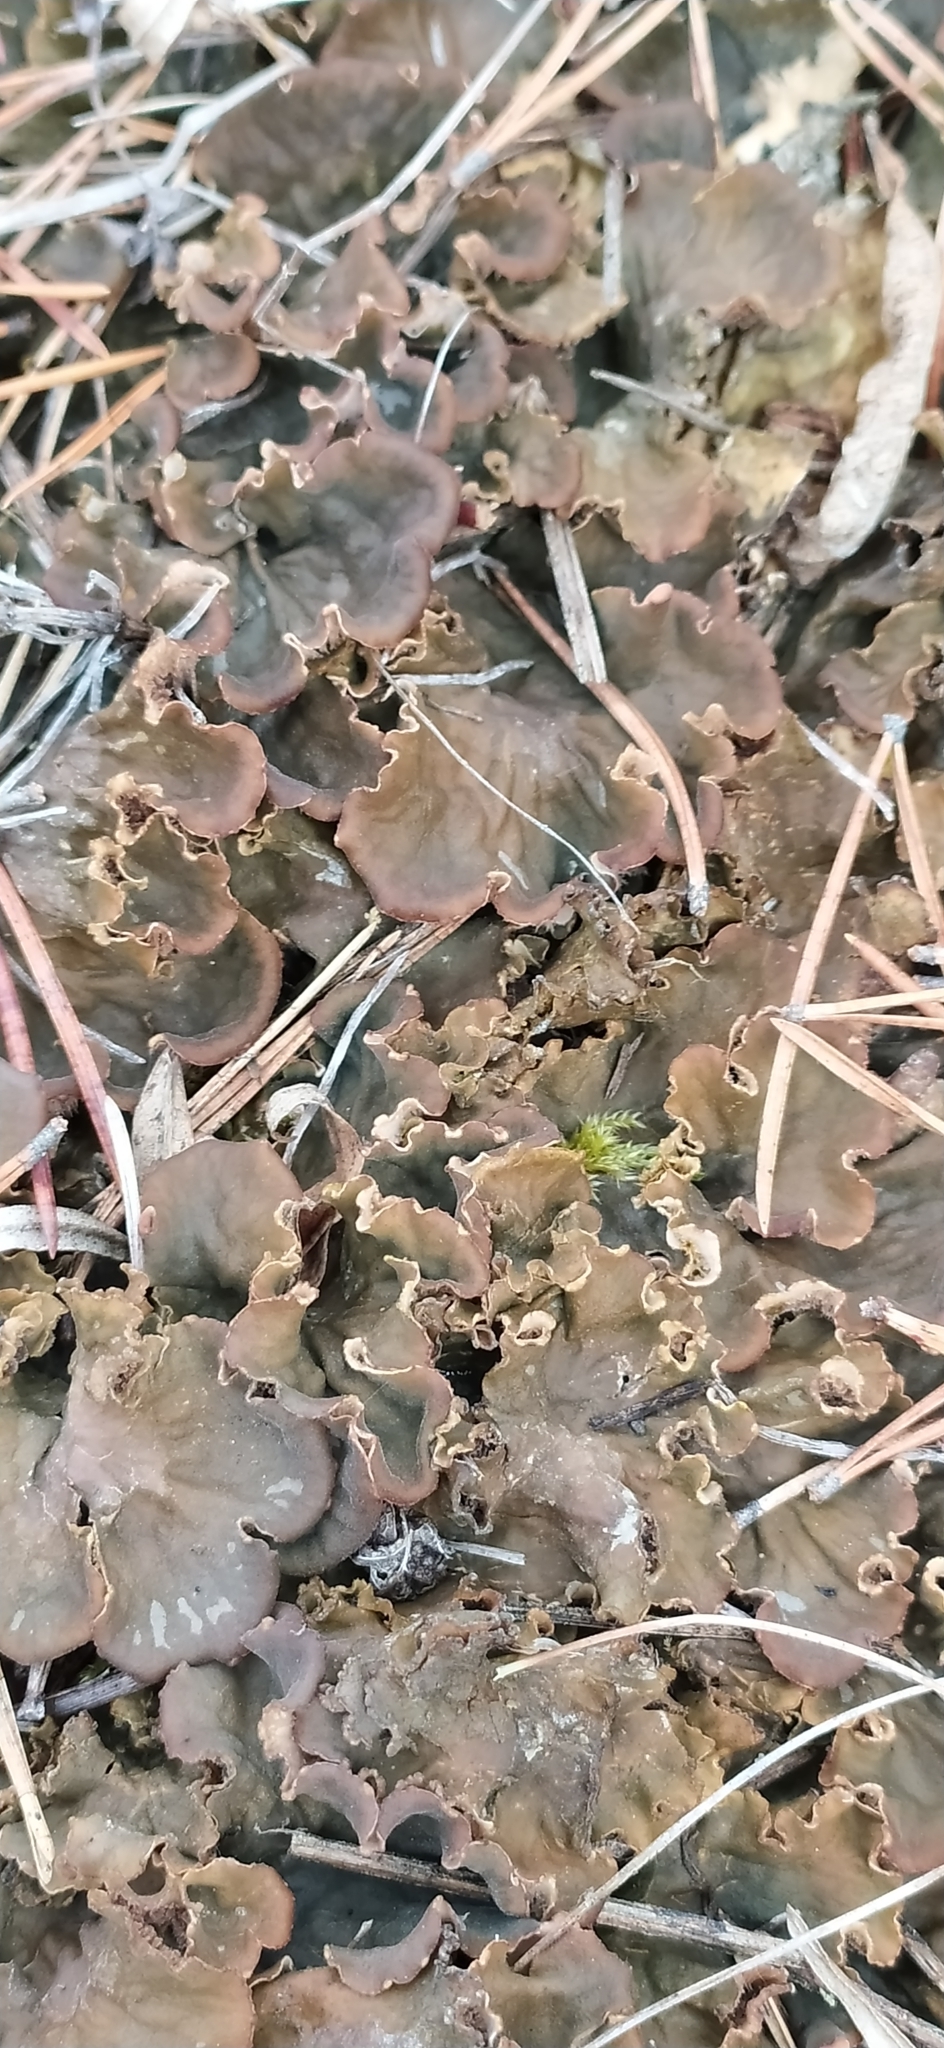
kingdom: Fungi
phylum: Ascomycota
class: Lecanoromycetes
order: Peltigerales
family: Peltigeraceae
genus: Peltigera
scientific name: Peltigera rufescens
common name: Field dog lichen
